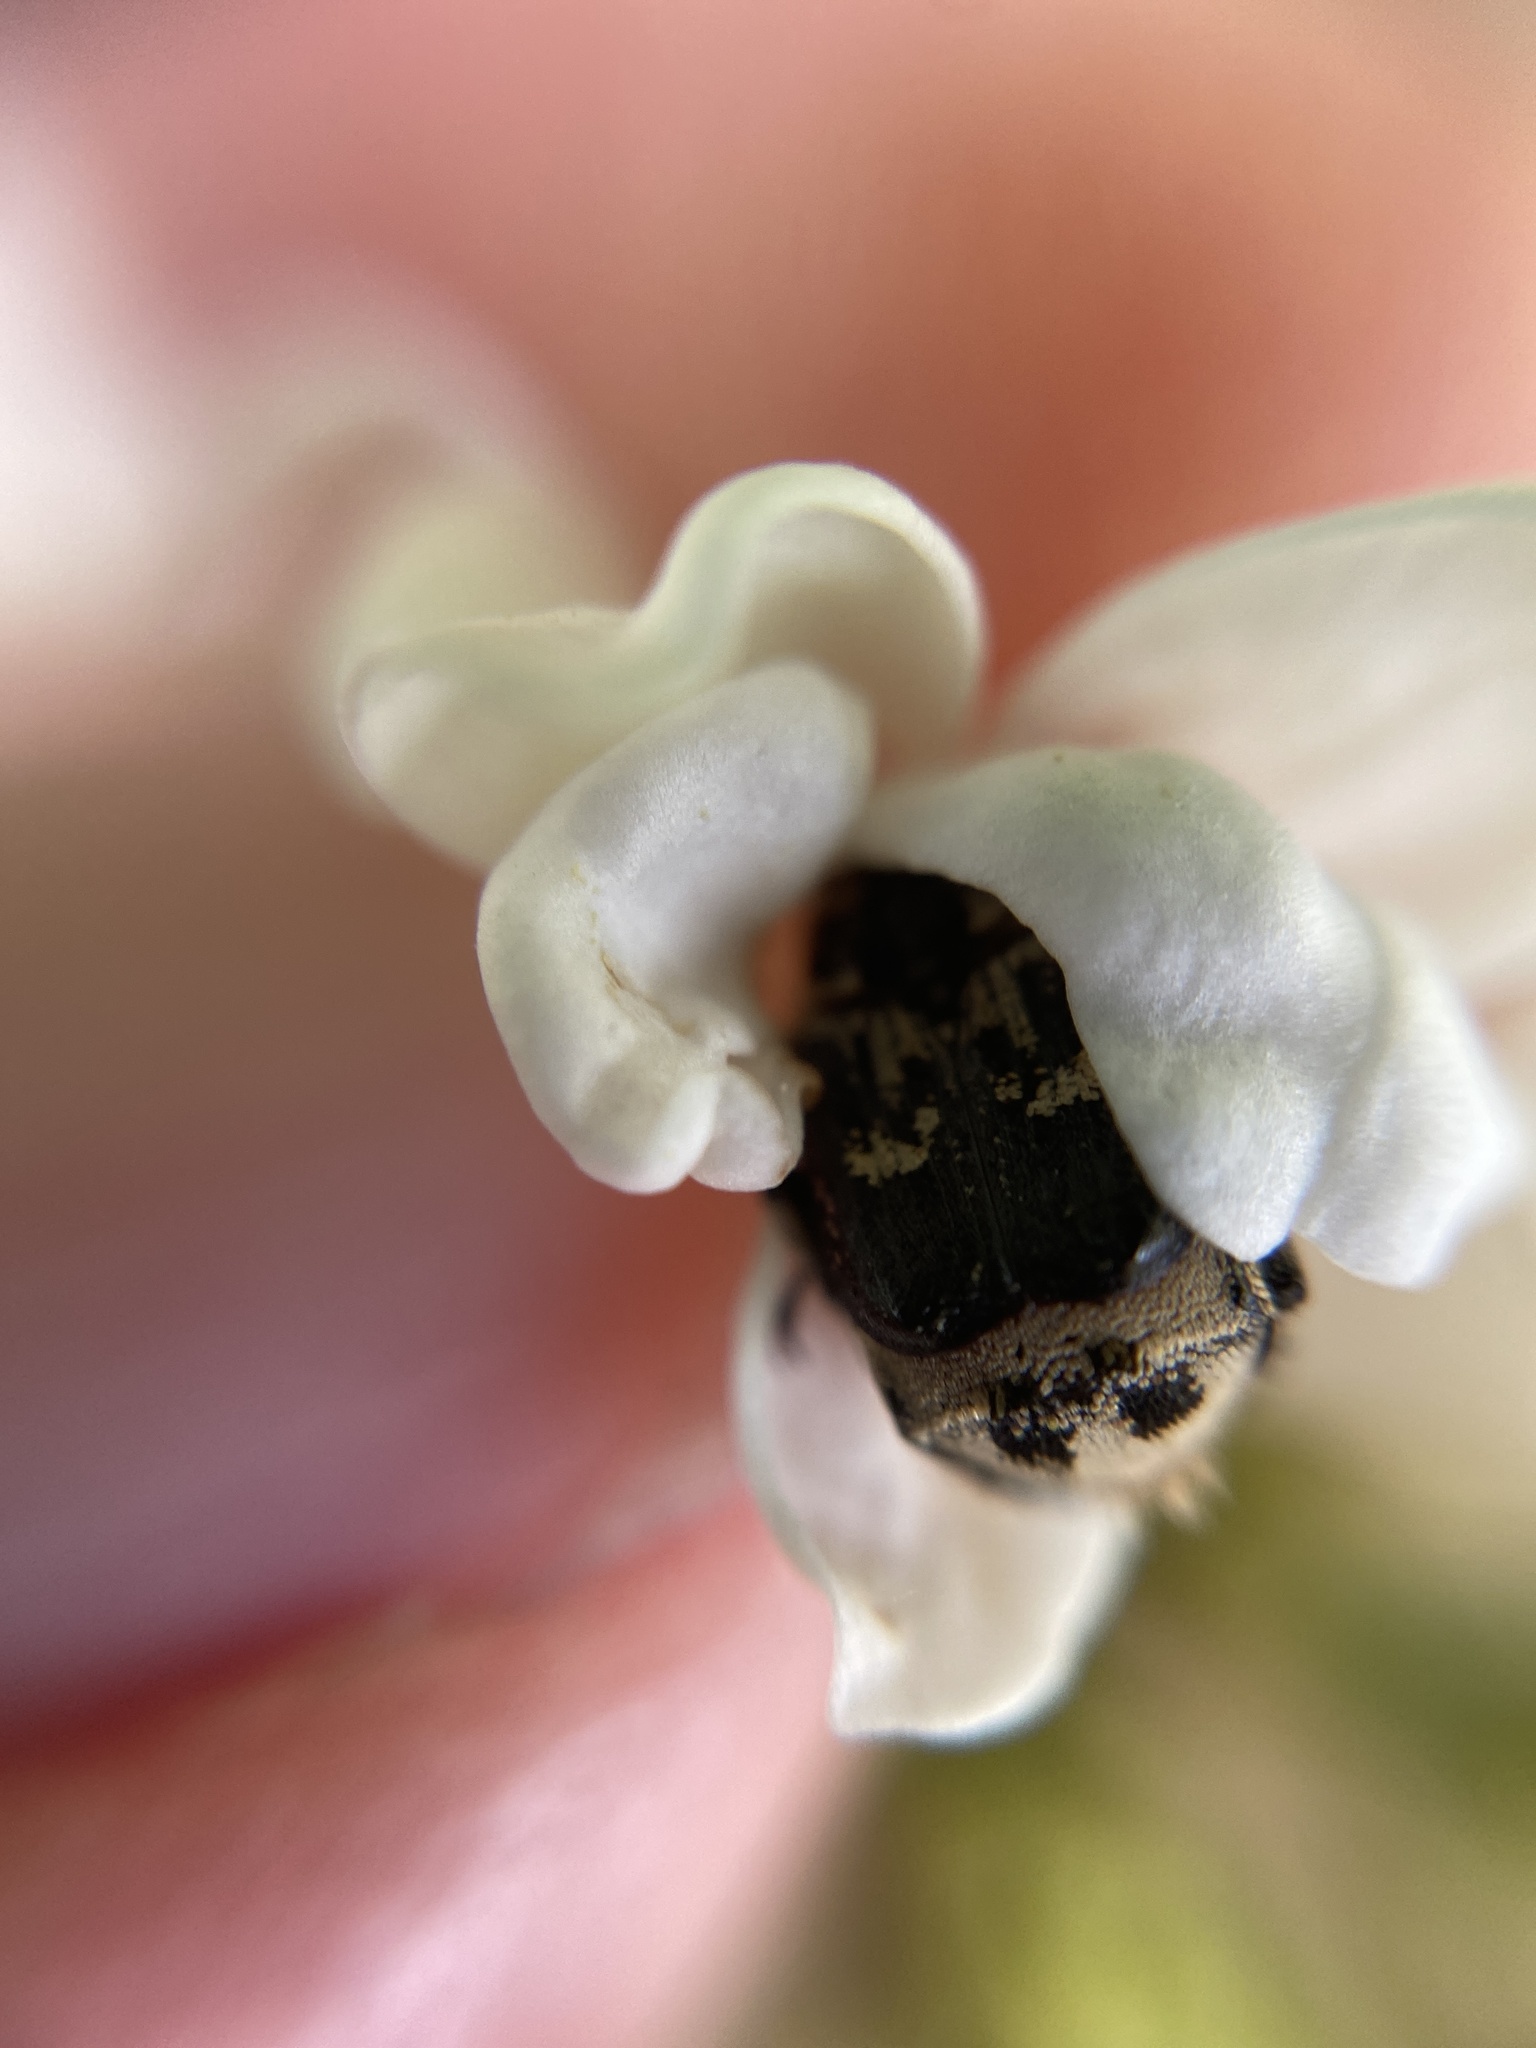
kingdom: Animalia
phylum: Arthropoda
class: Insecta
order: Coleoptera
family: Scarabaeidae
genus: Valgus
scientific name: Valgus hemipterus
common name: Bug flower chafer
